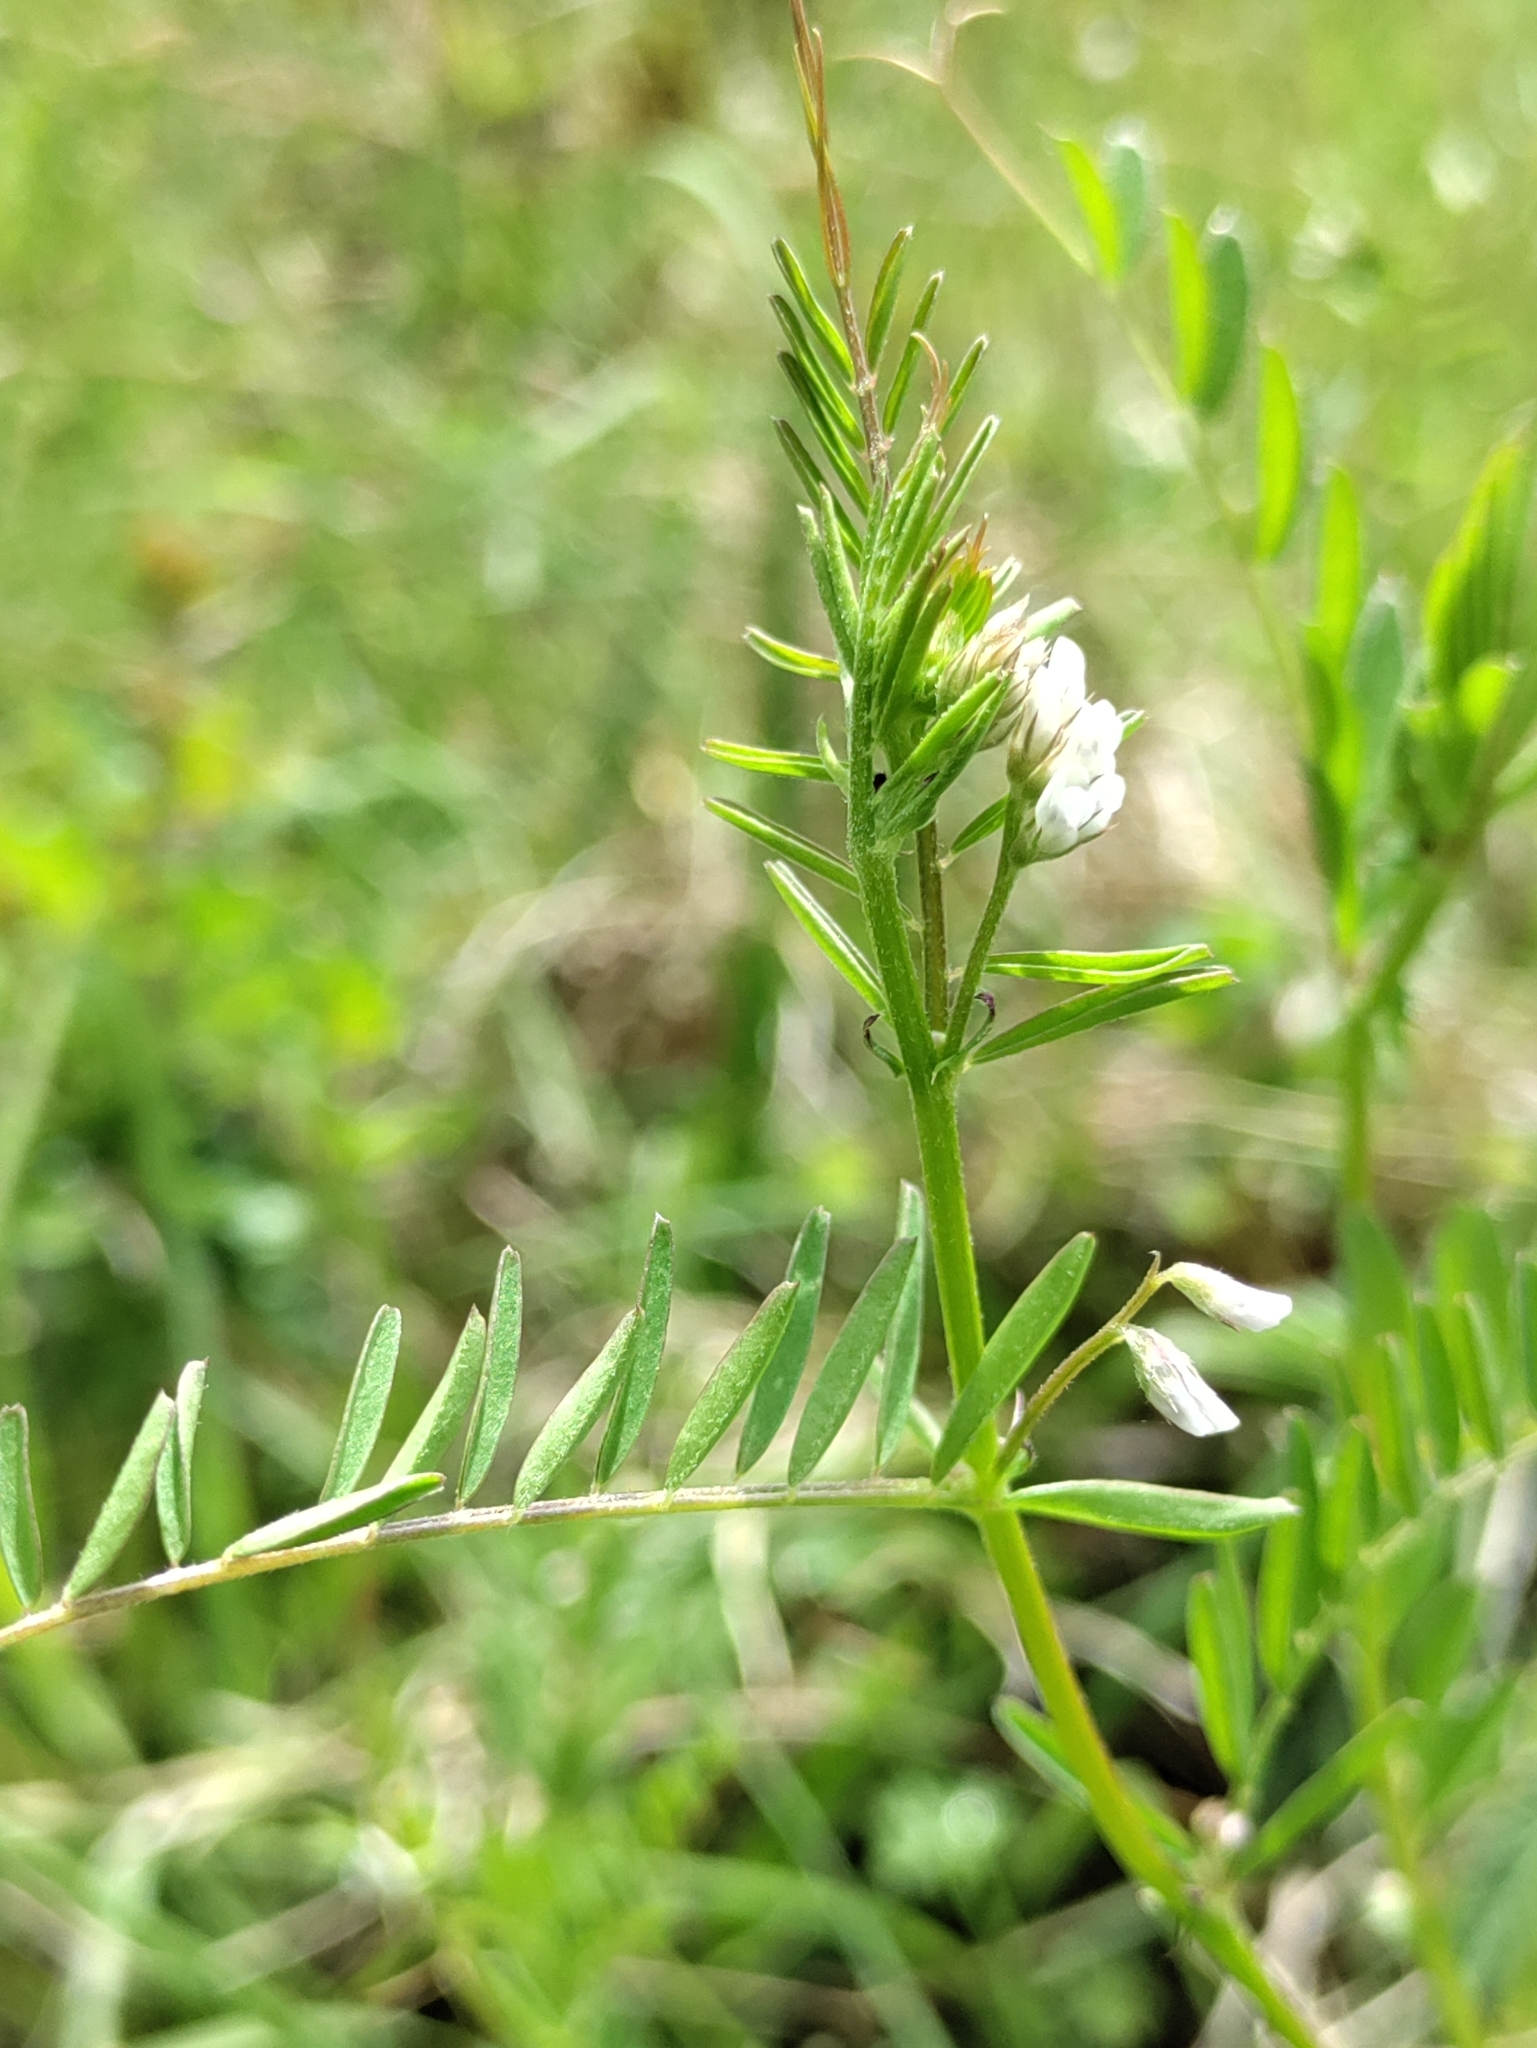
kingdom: Plantae
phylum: Tracheophyta
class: Magnoliopsida
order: Fabales
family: Fabaceae
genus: Vicia
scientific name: Vicia hirsuta
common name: Tiny vetch
